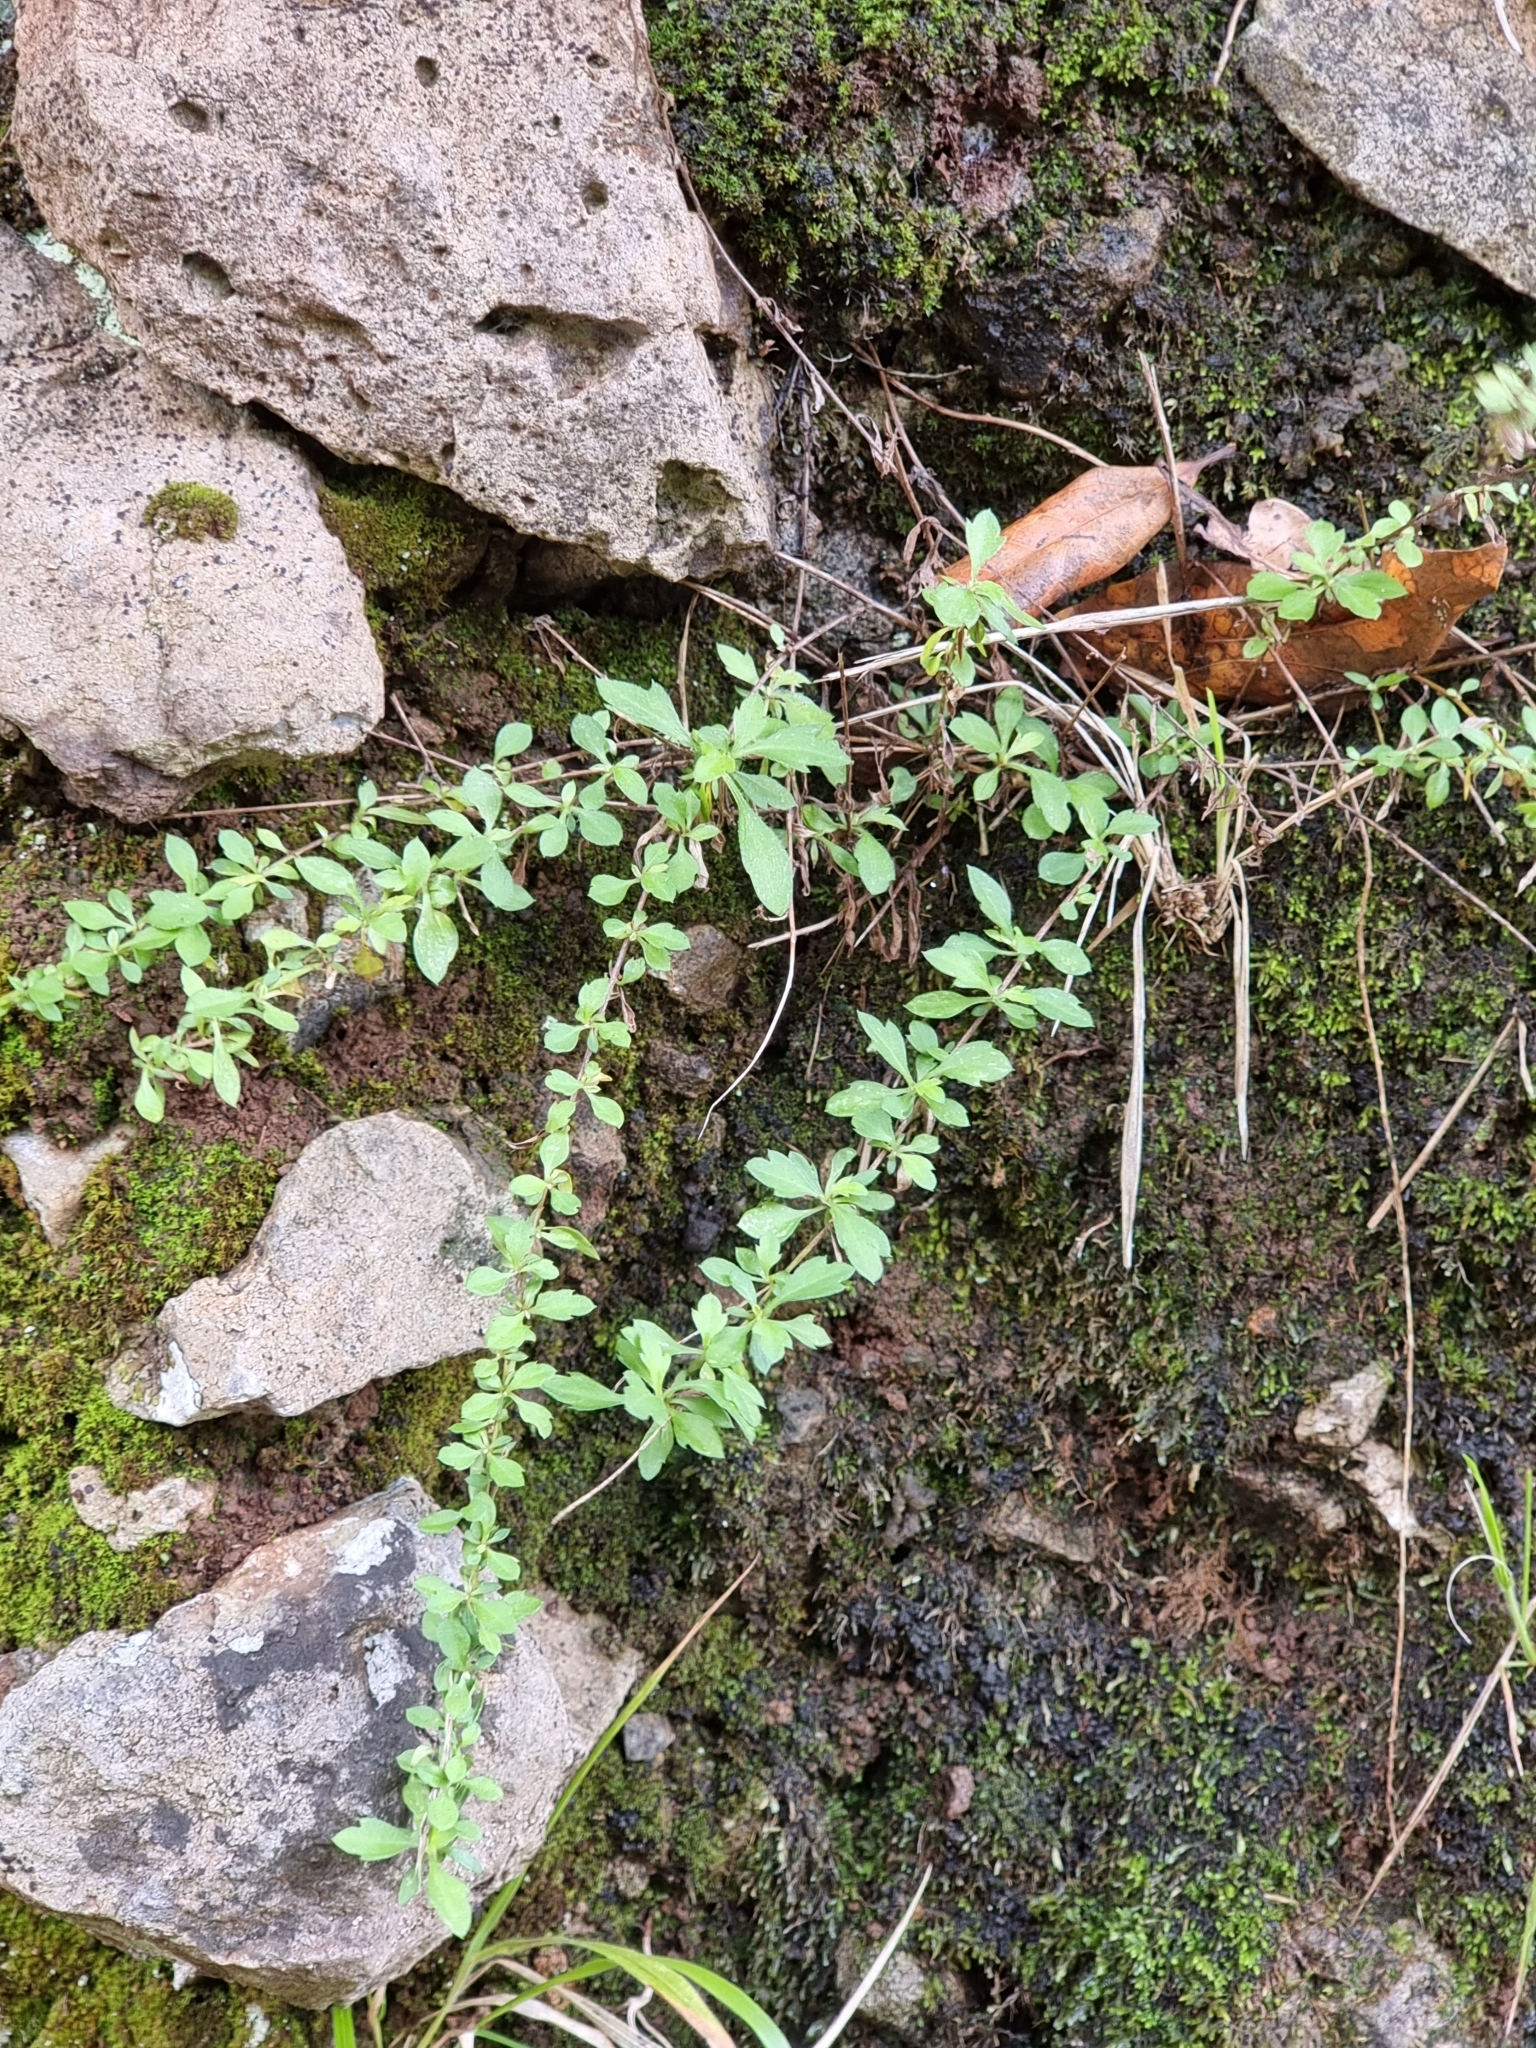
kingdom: Plantae
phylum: Tracheophyta
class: Magnoliopsida
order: Asterales
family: Asteraceae
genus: Erigeron
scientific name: Erigeron karvinskianus
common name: Mexican fleabane
